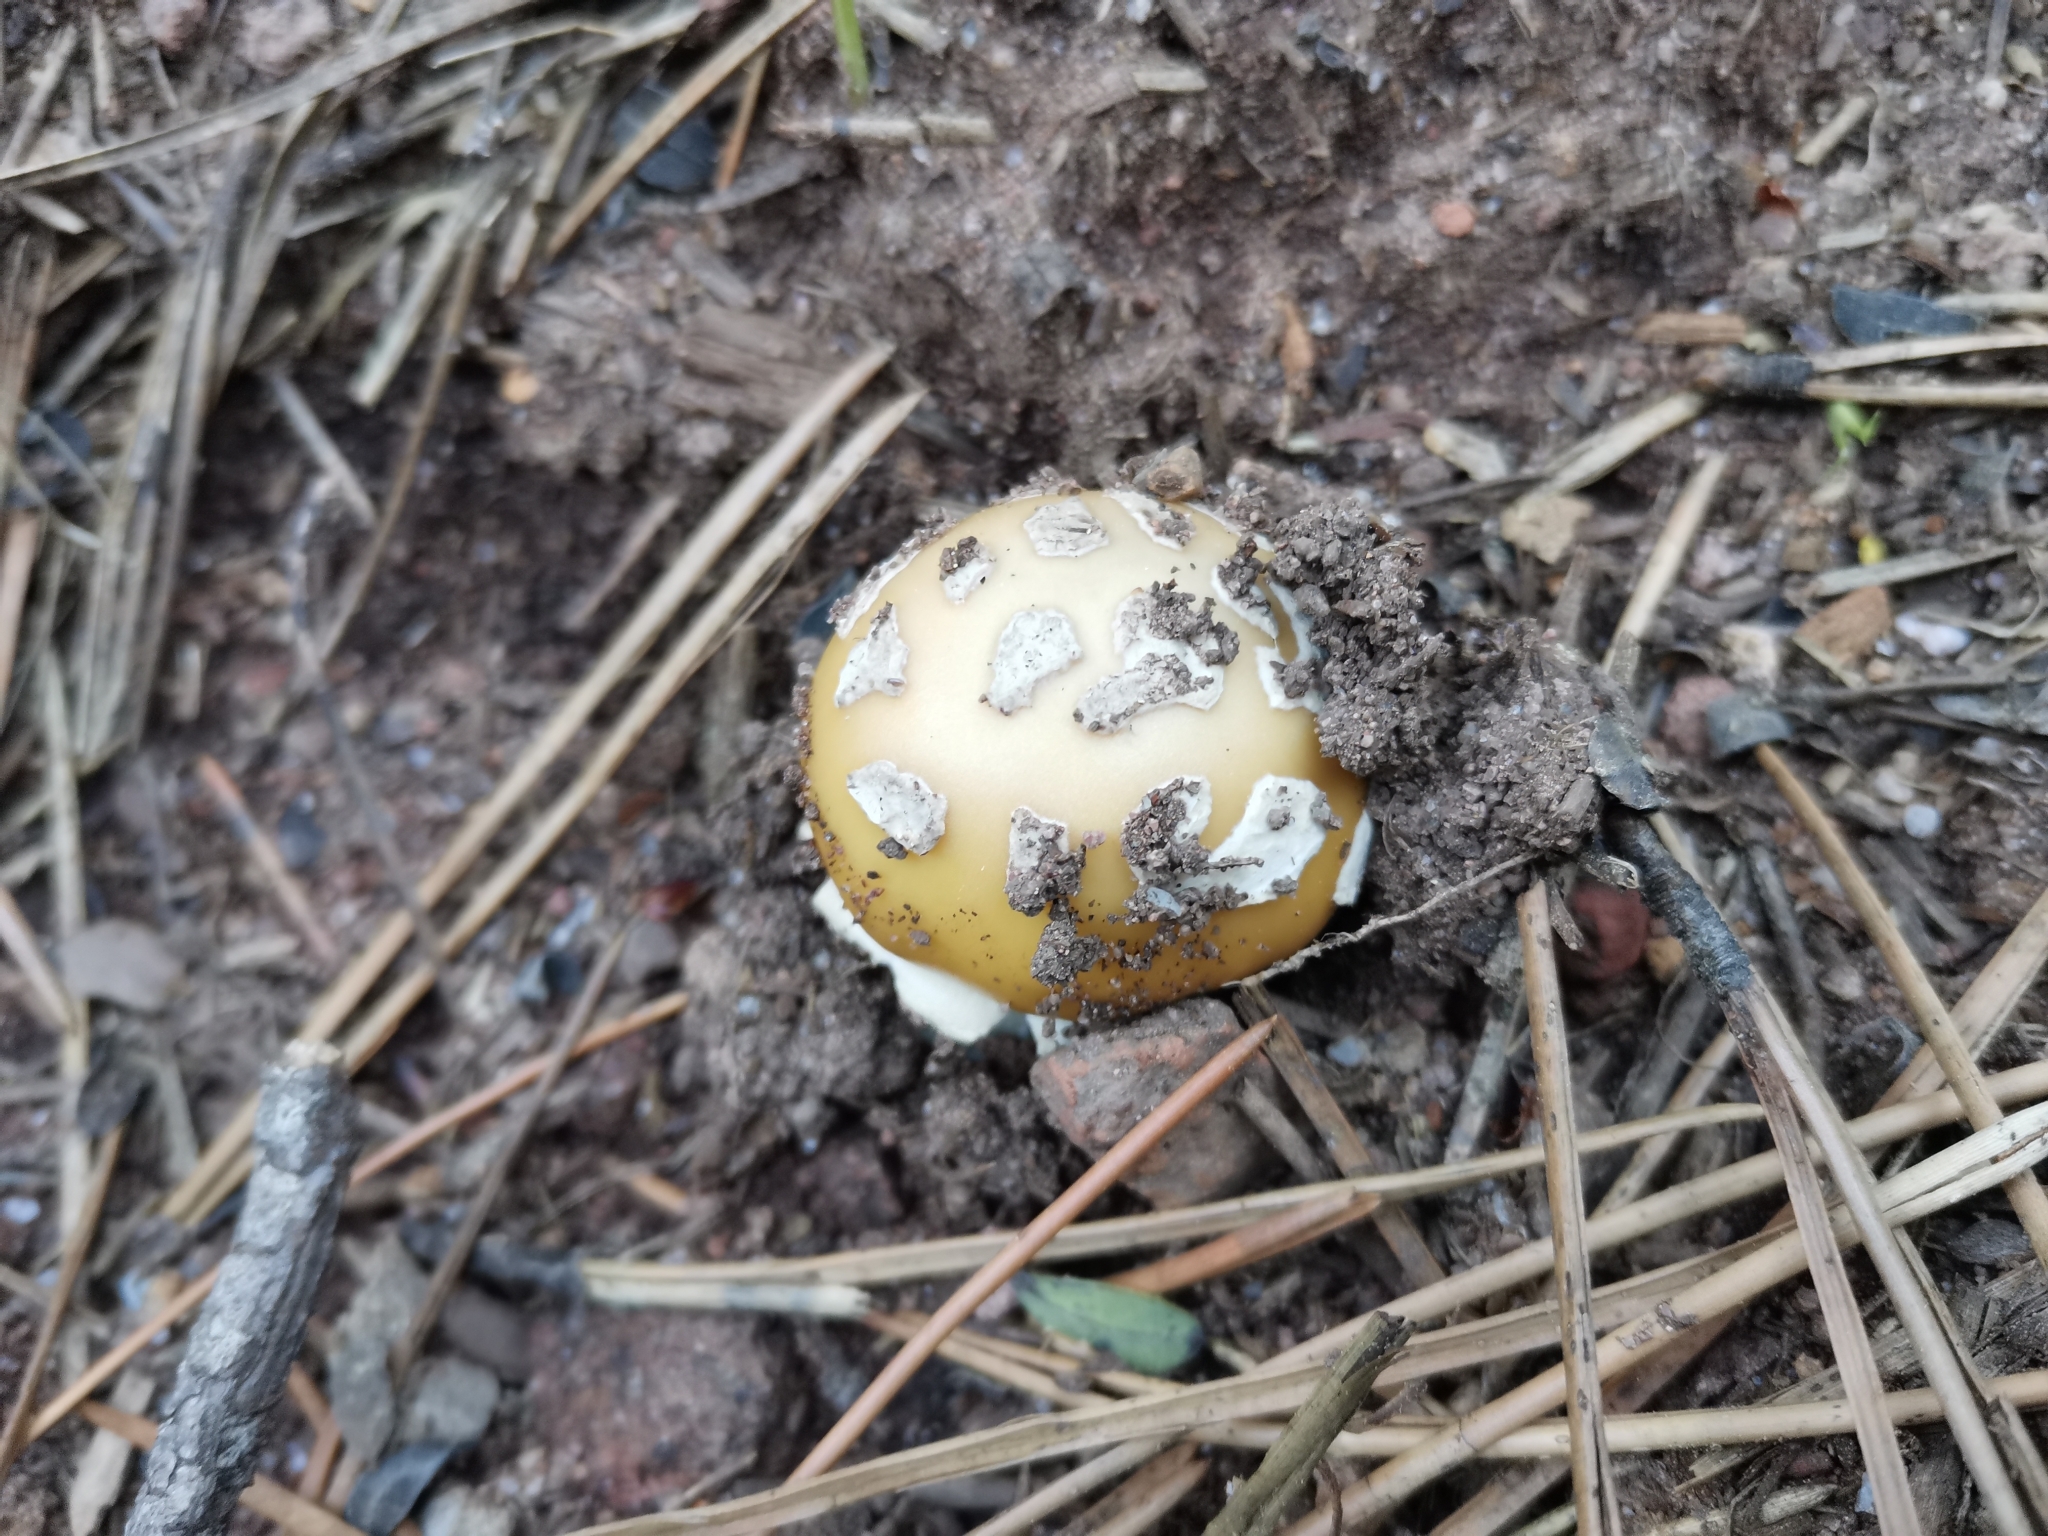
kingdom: Fungi
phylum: Basidiomycota
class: Agaricomycetes
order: Agaricales
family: Amanitaceae
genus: Amanita
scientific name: Amanita gemmata
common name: Jewelled amanita
